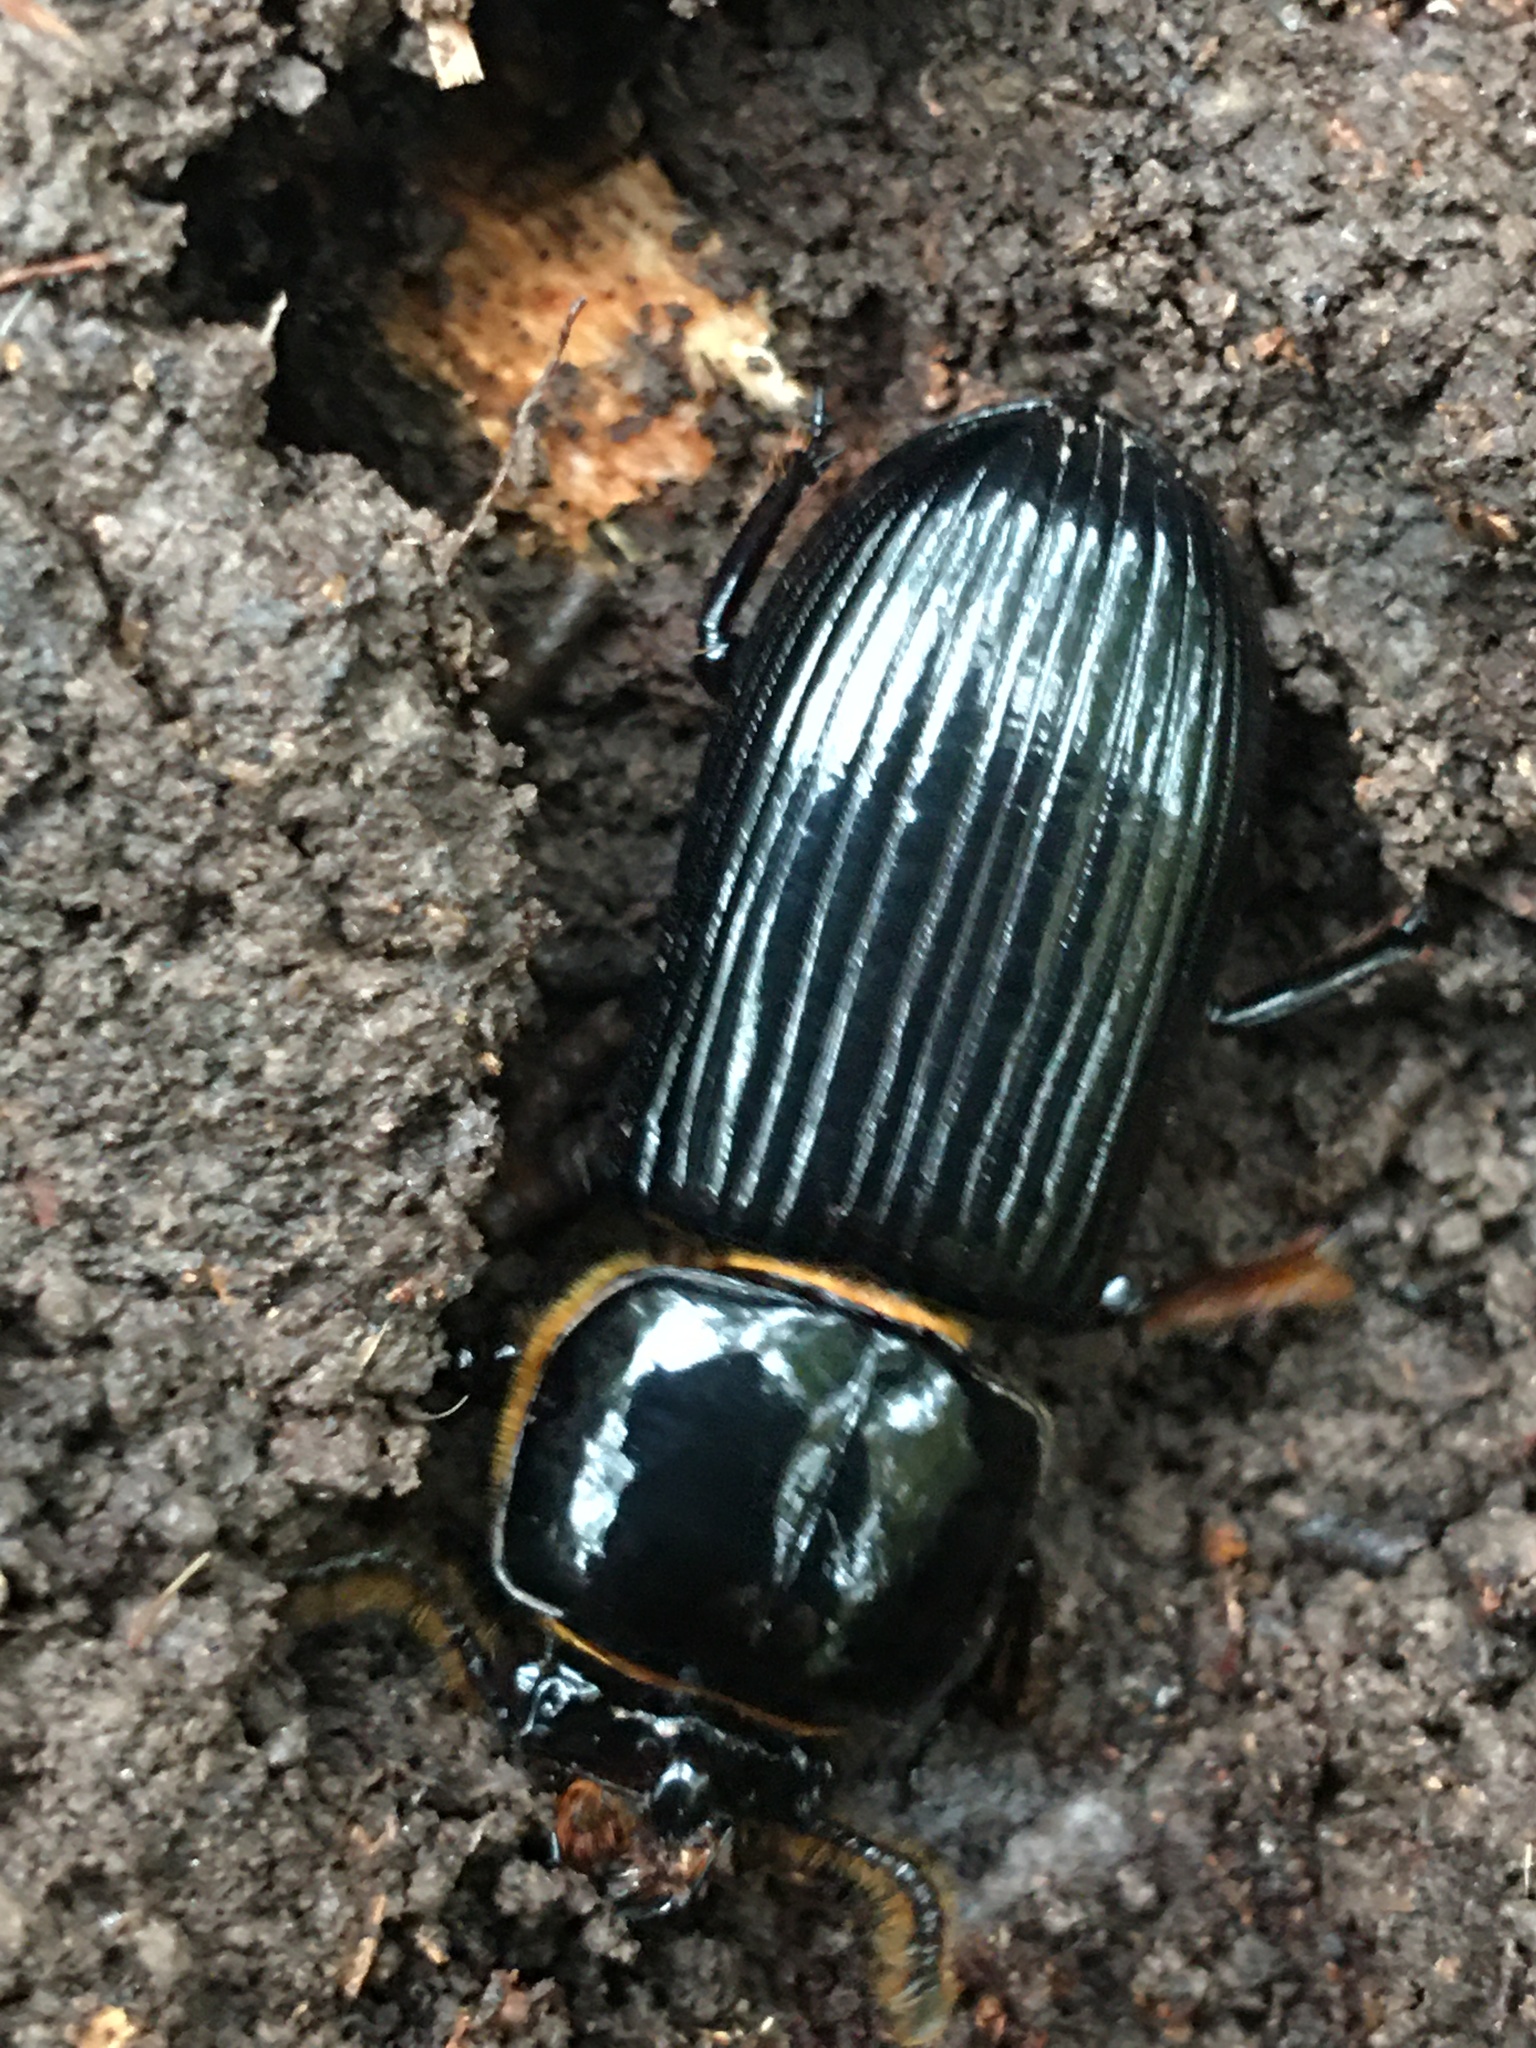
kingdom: Animalia
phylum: Arthropoda
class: Insecta
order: Coleoptera
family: Passalidae
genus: Odontotaenius
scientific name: Odontotaenius disjunctus
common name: Patent leather beetle
